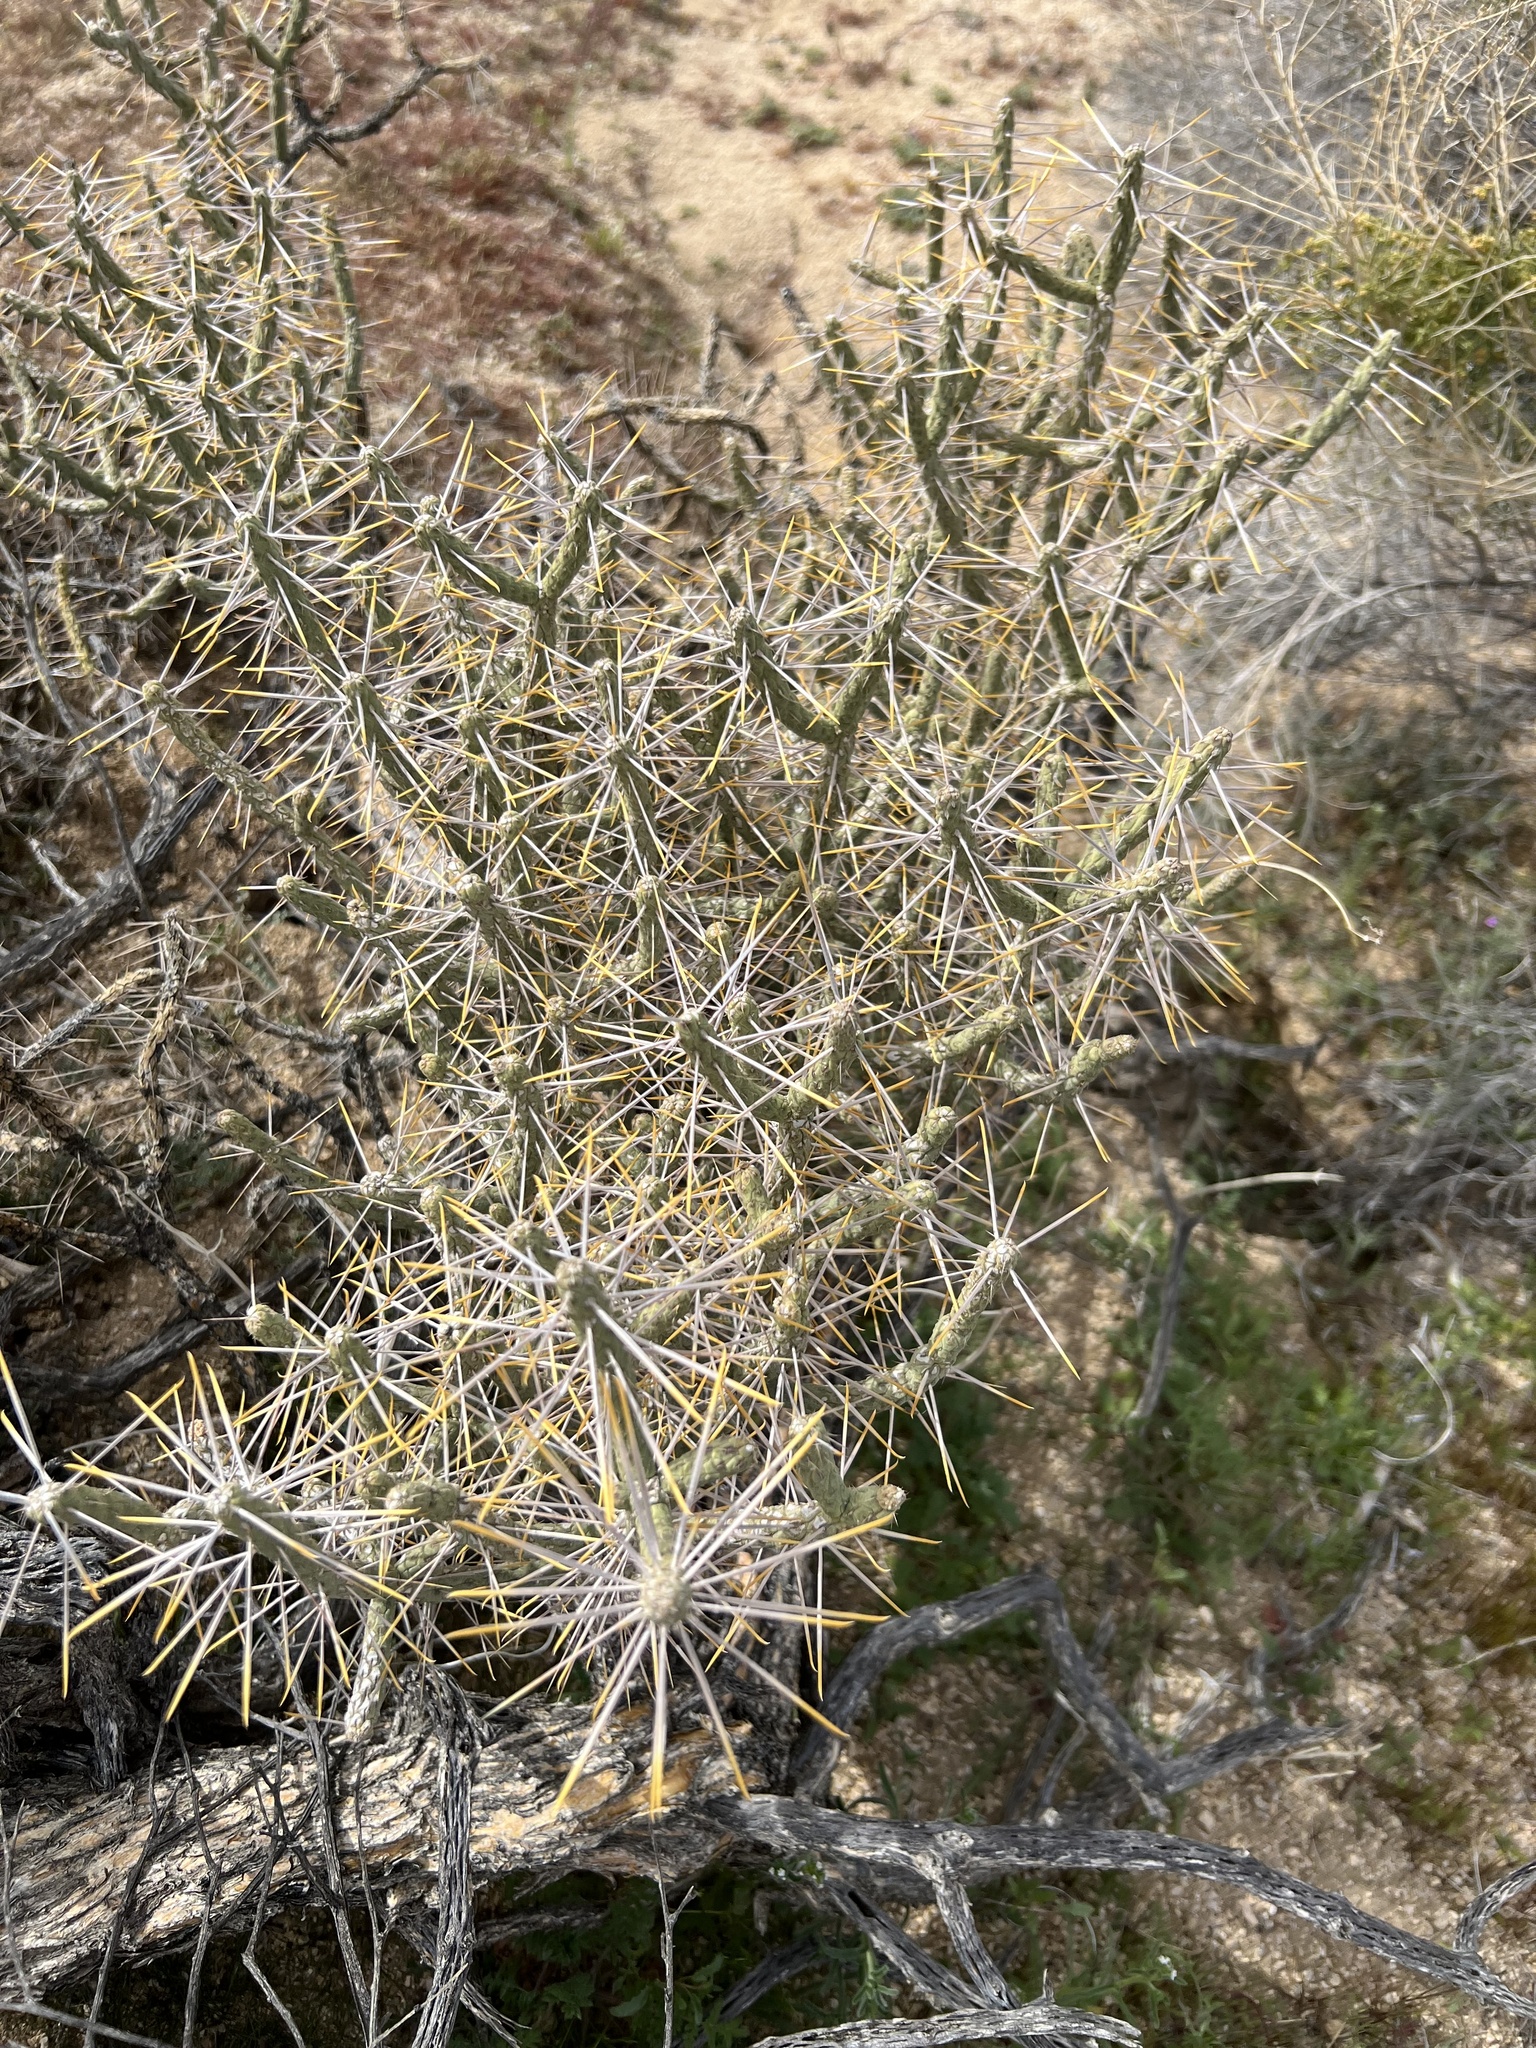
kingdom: Plantae
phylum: Tracheophyta
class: Magnoliopsida
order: Caryophyllales
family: Cactaceae
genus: Cylindropuntia
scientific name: Cylindropuntia ramosissima
